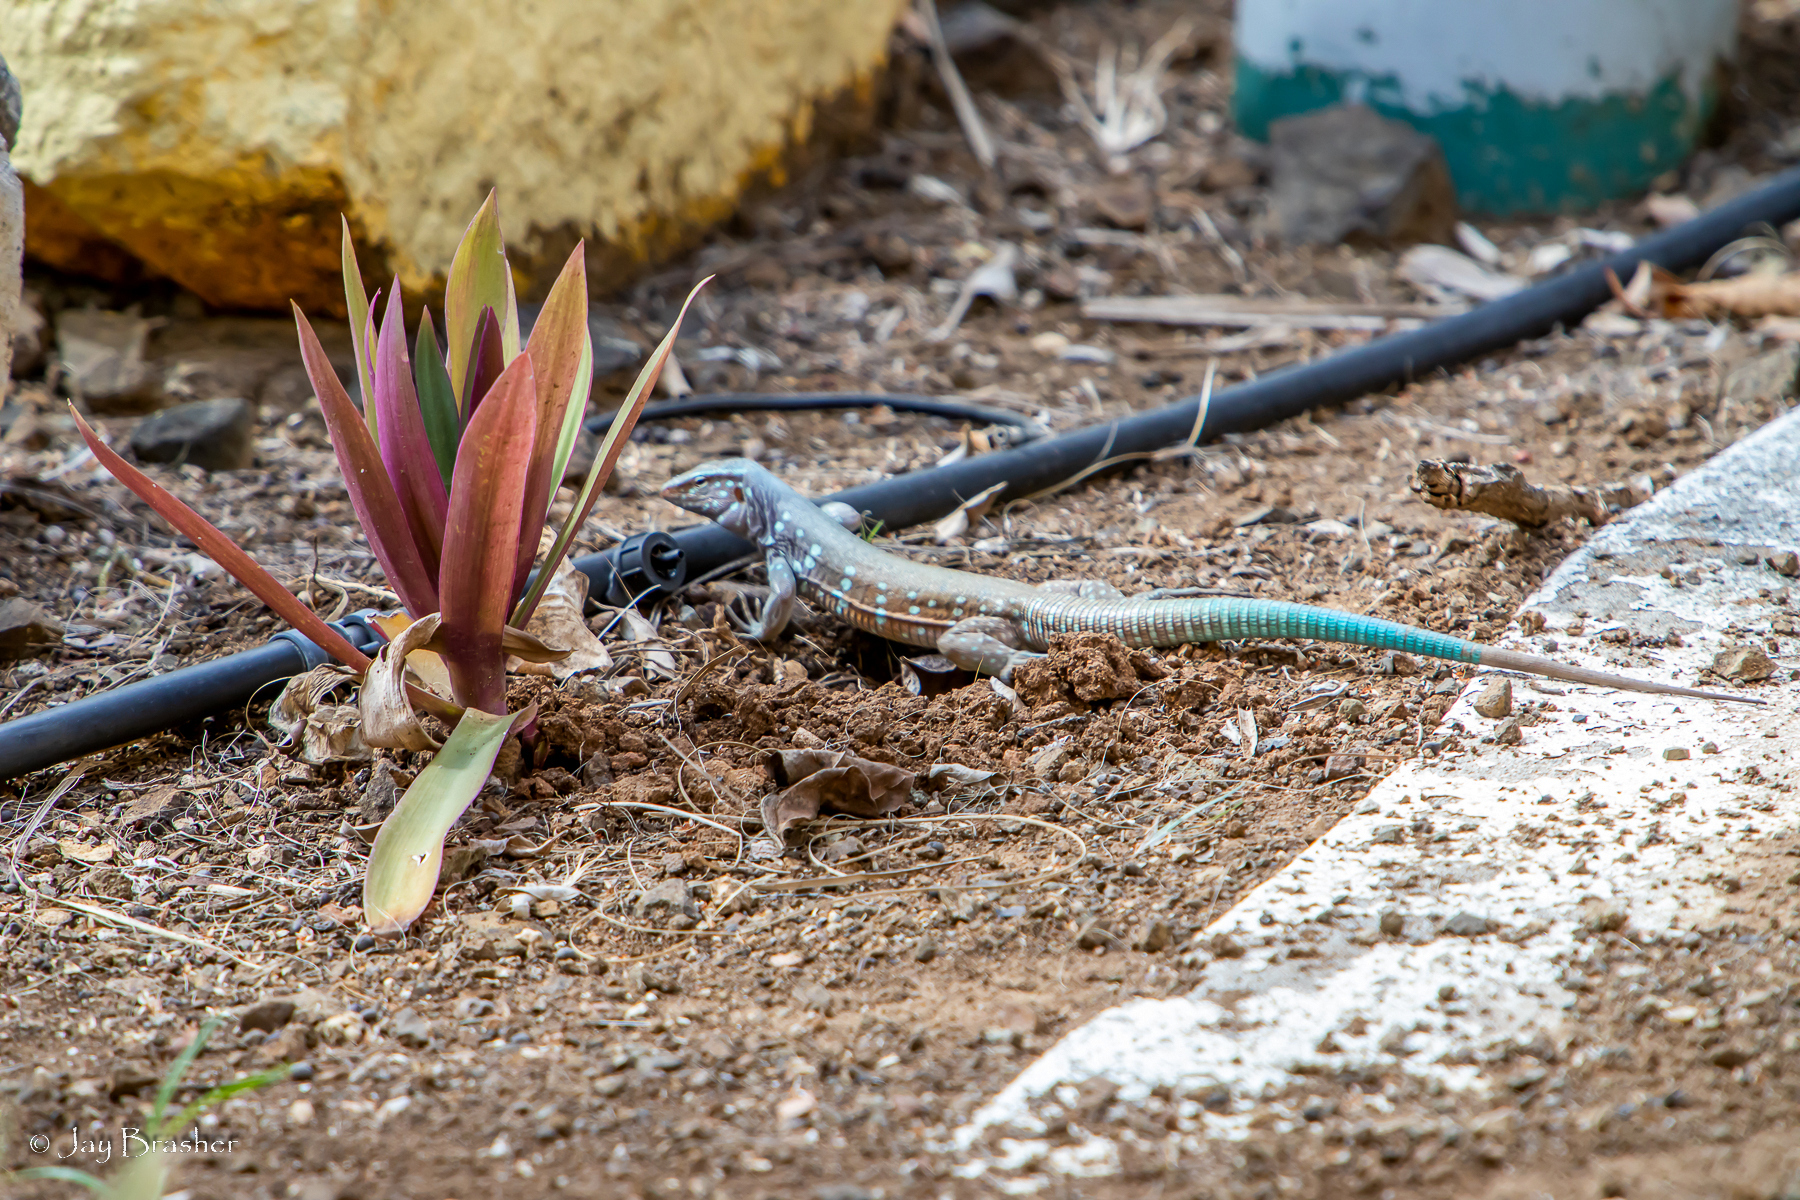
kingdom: Animalia
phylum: Chordata
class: Squamata
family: Teiidae
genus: Cnemidophorus
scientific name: Cnemidophorus ruthveni
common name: Bonaire whiptail
